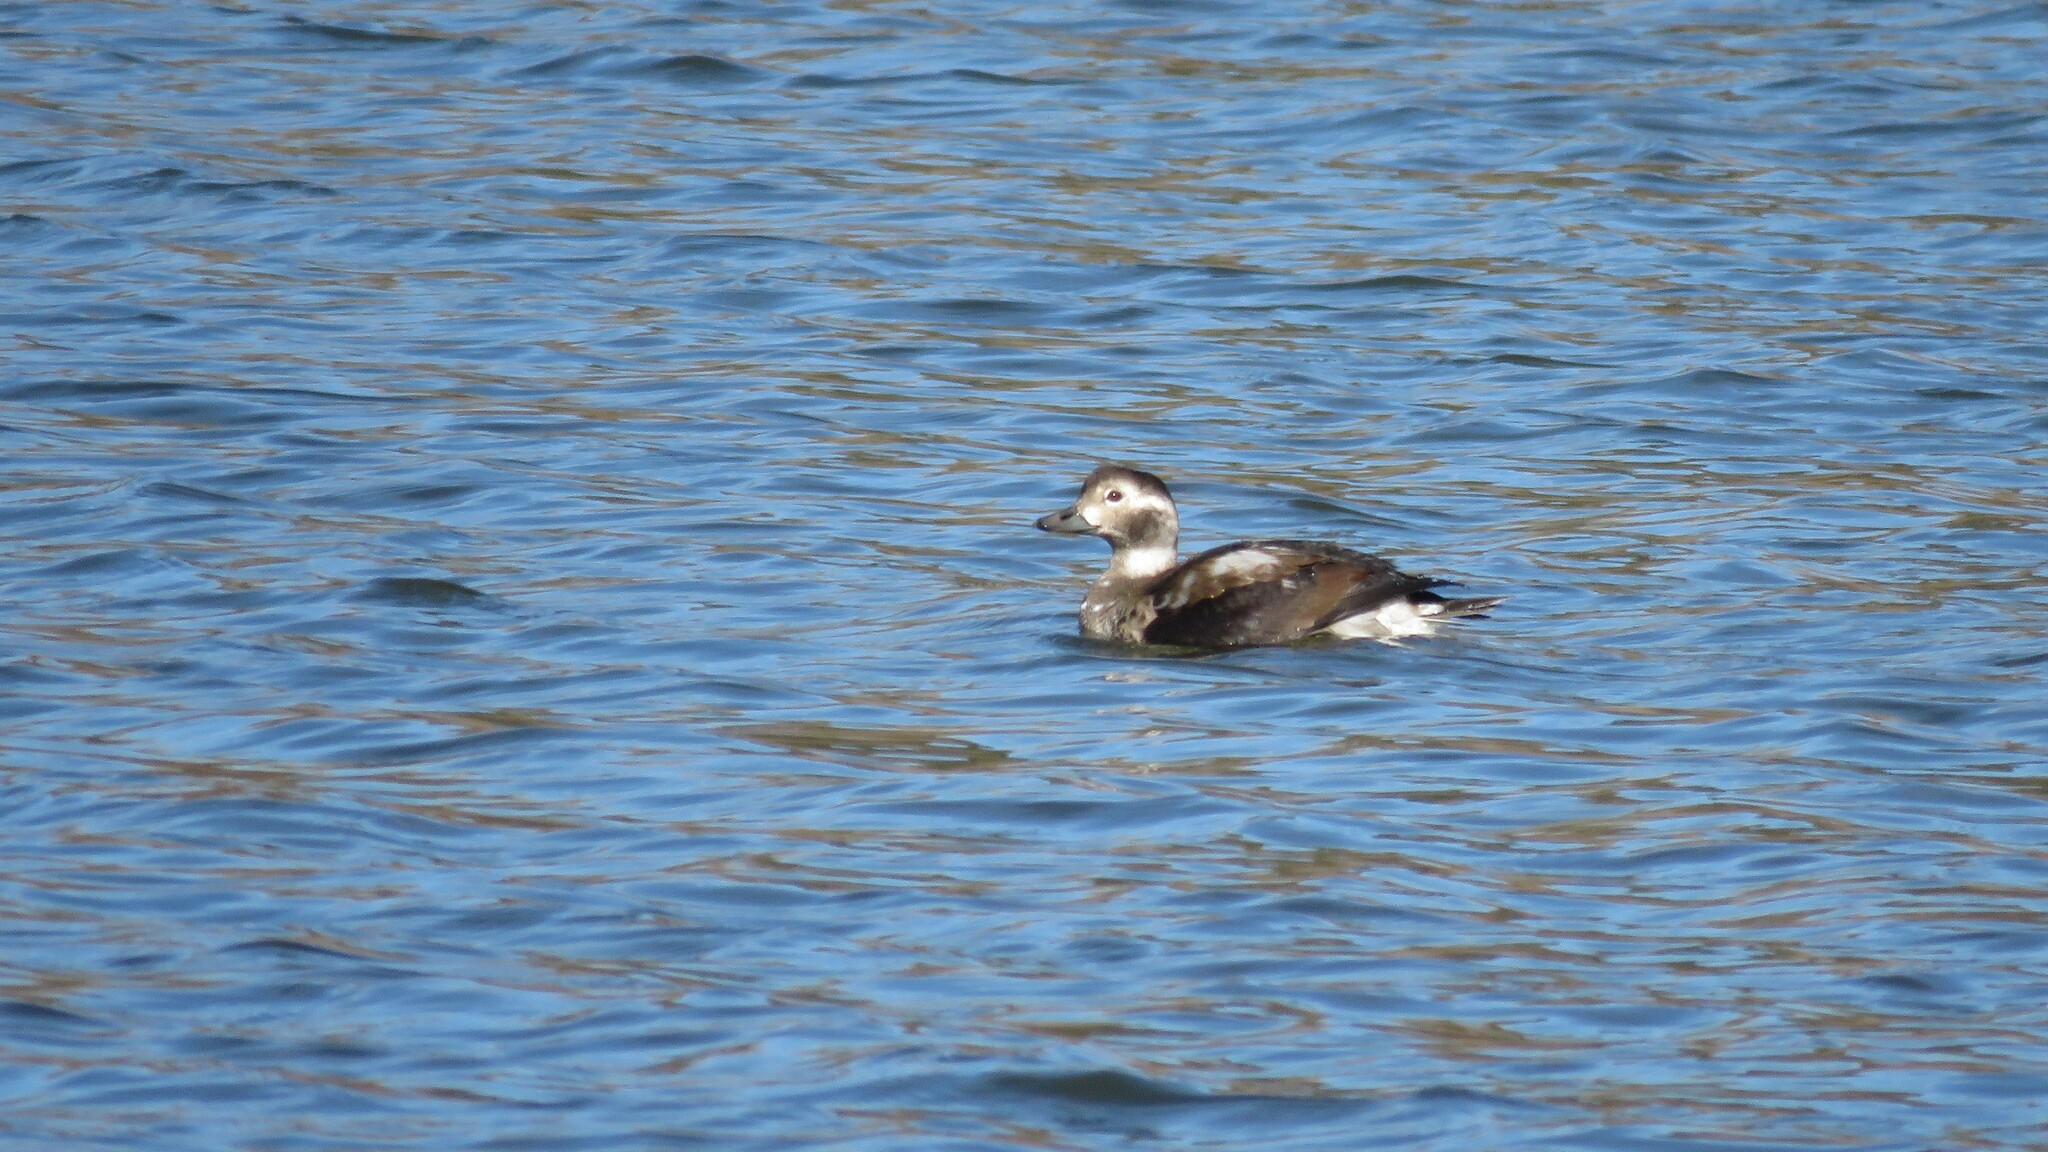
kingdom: Animalia
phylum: Chordata
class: Aves
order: Anseriformes
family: Anatidae
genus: Clangula
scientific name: Clangula hyemalis
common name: Long-tailed duck
